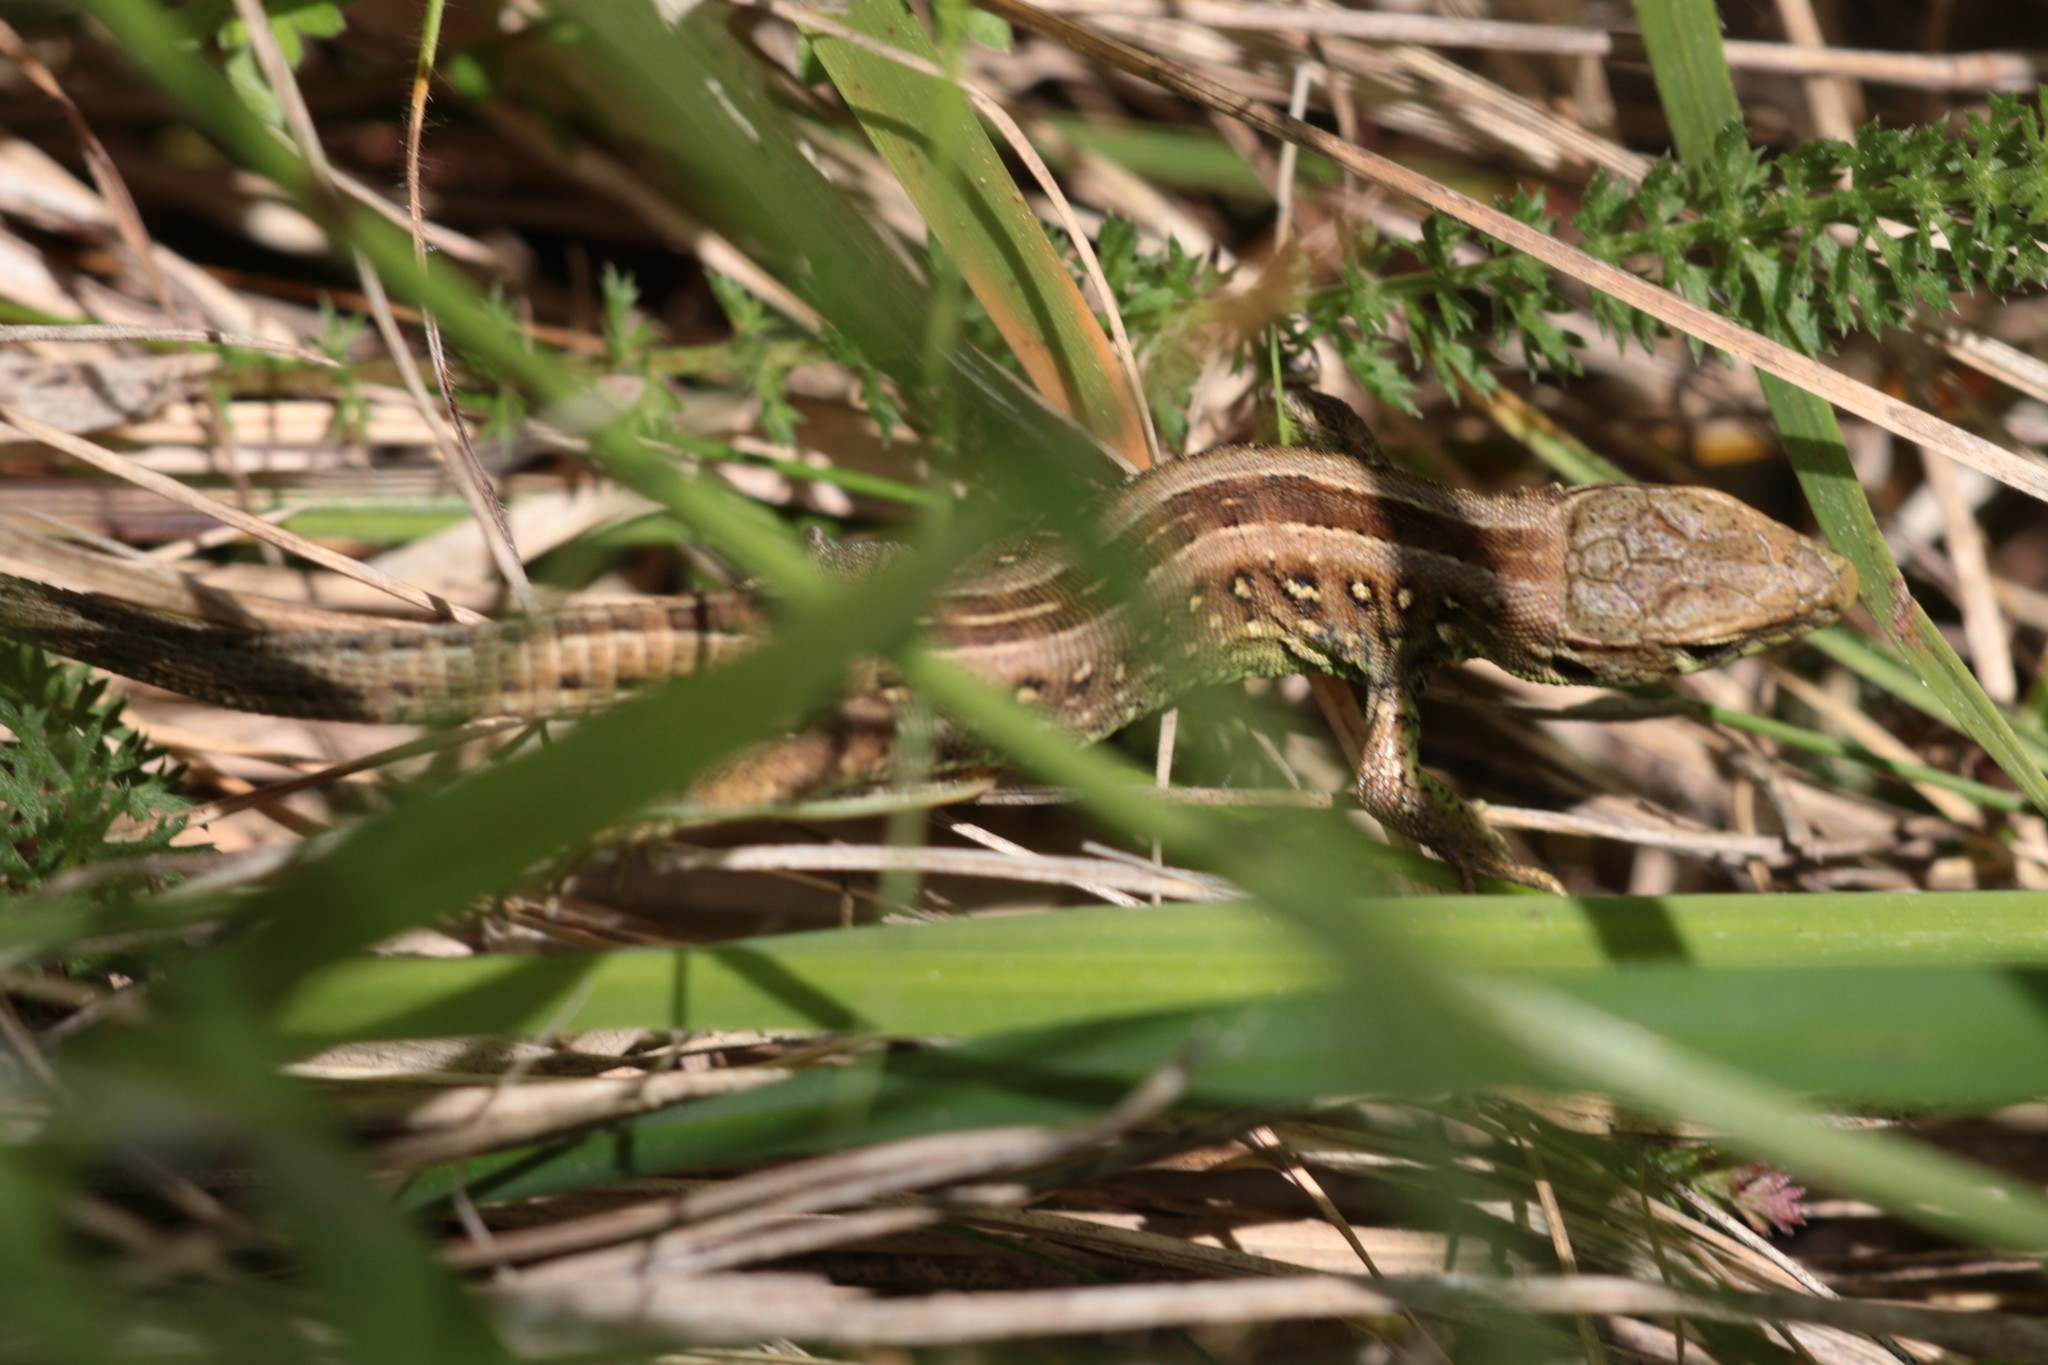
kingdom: Animalia
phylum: Chordata
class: Squamata
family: Lacertidae
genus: Lacerta
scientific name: Lacerta agilis
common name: Sand lizard
